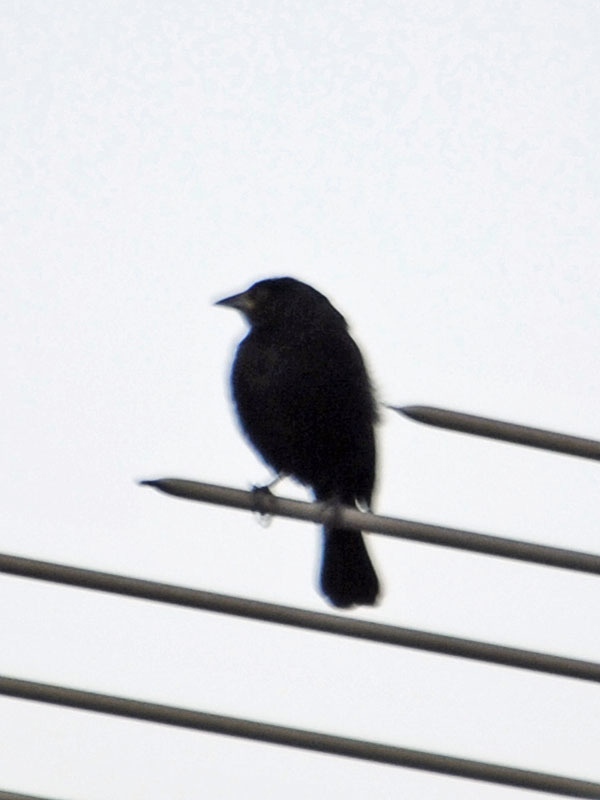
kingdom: Animalia
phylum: Chordata
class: Aves
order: Passeriformes
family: Icteridae
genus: Molothrus
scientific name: Molothrus aeneus
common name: Bronzed cowbird
